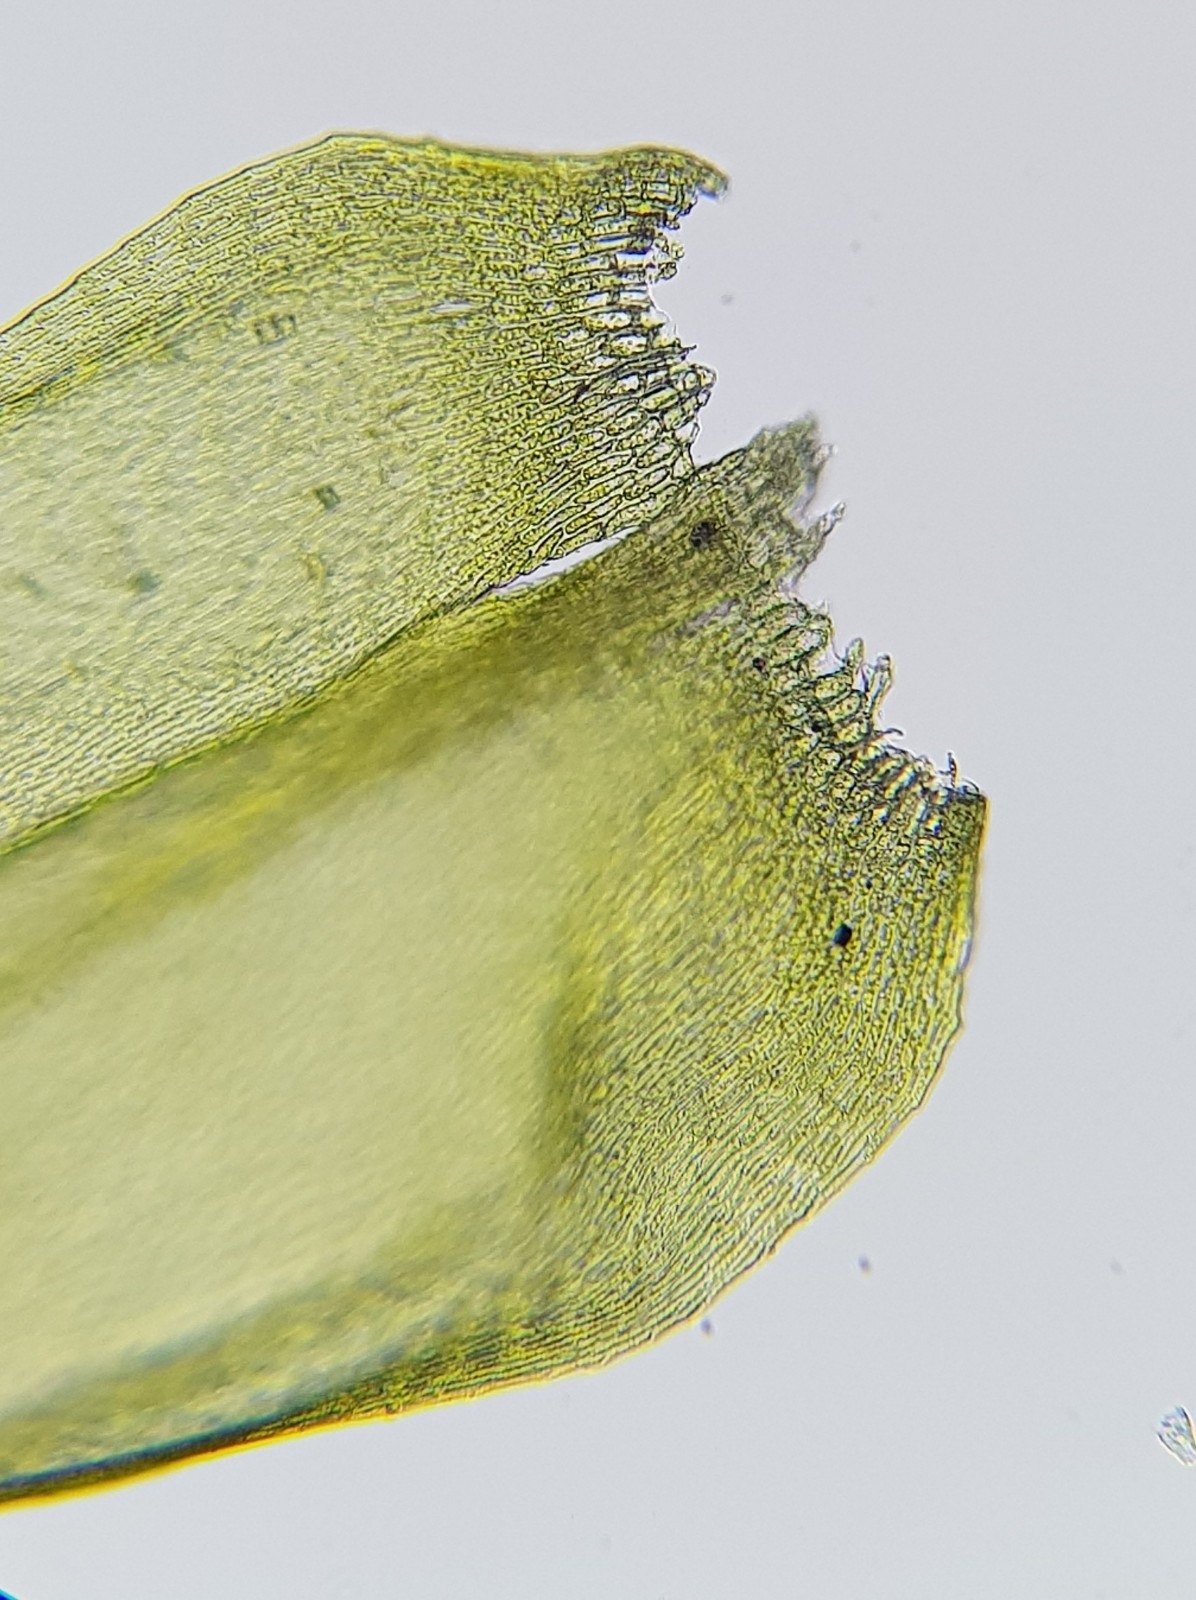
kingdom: Plantae
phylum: Bryophyta
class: Bryopsida
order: Hypnales
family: Brachytheciaceae
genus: Sciuro-hypnum
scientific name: Sciuro-hypnum plumosum
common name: Rusty feather-moss
